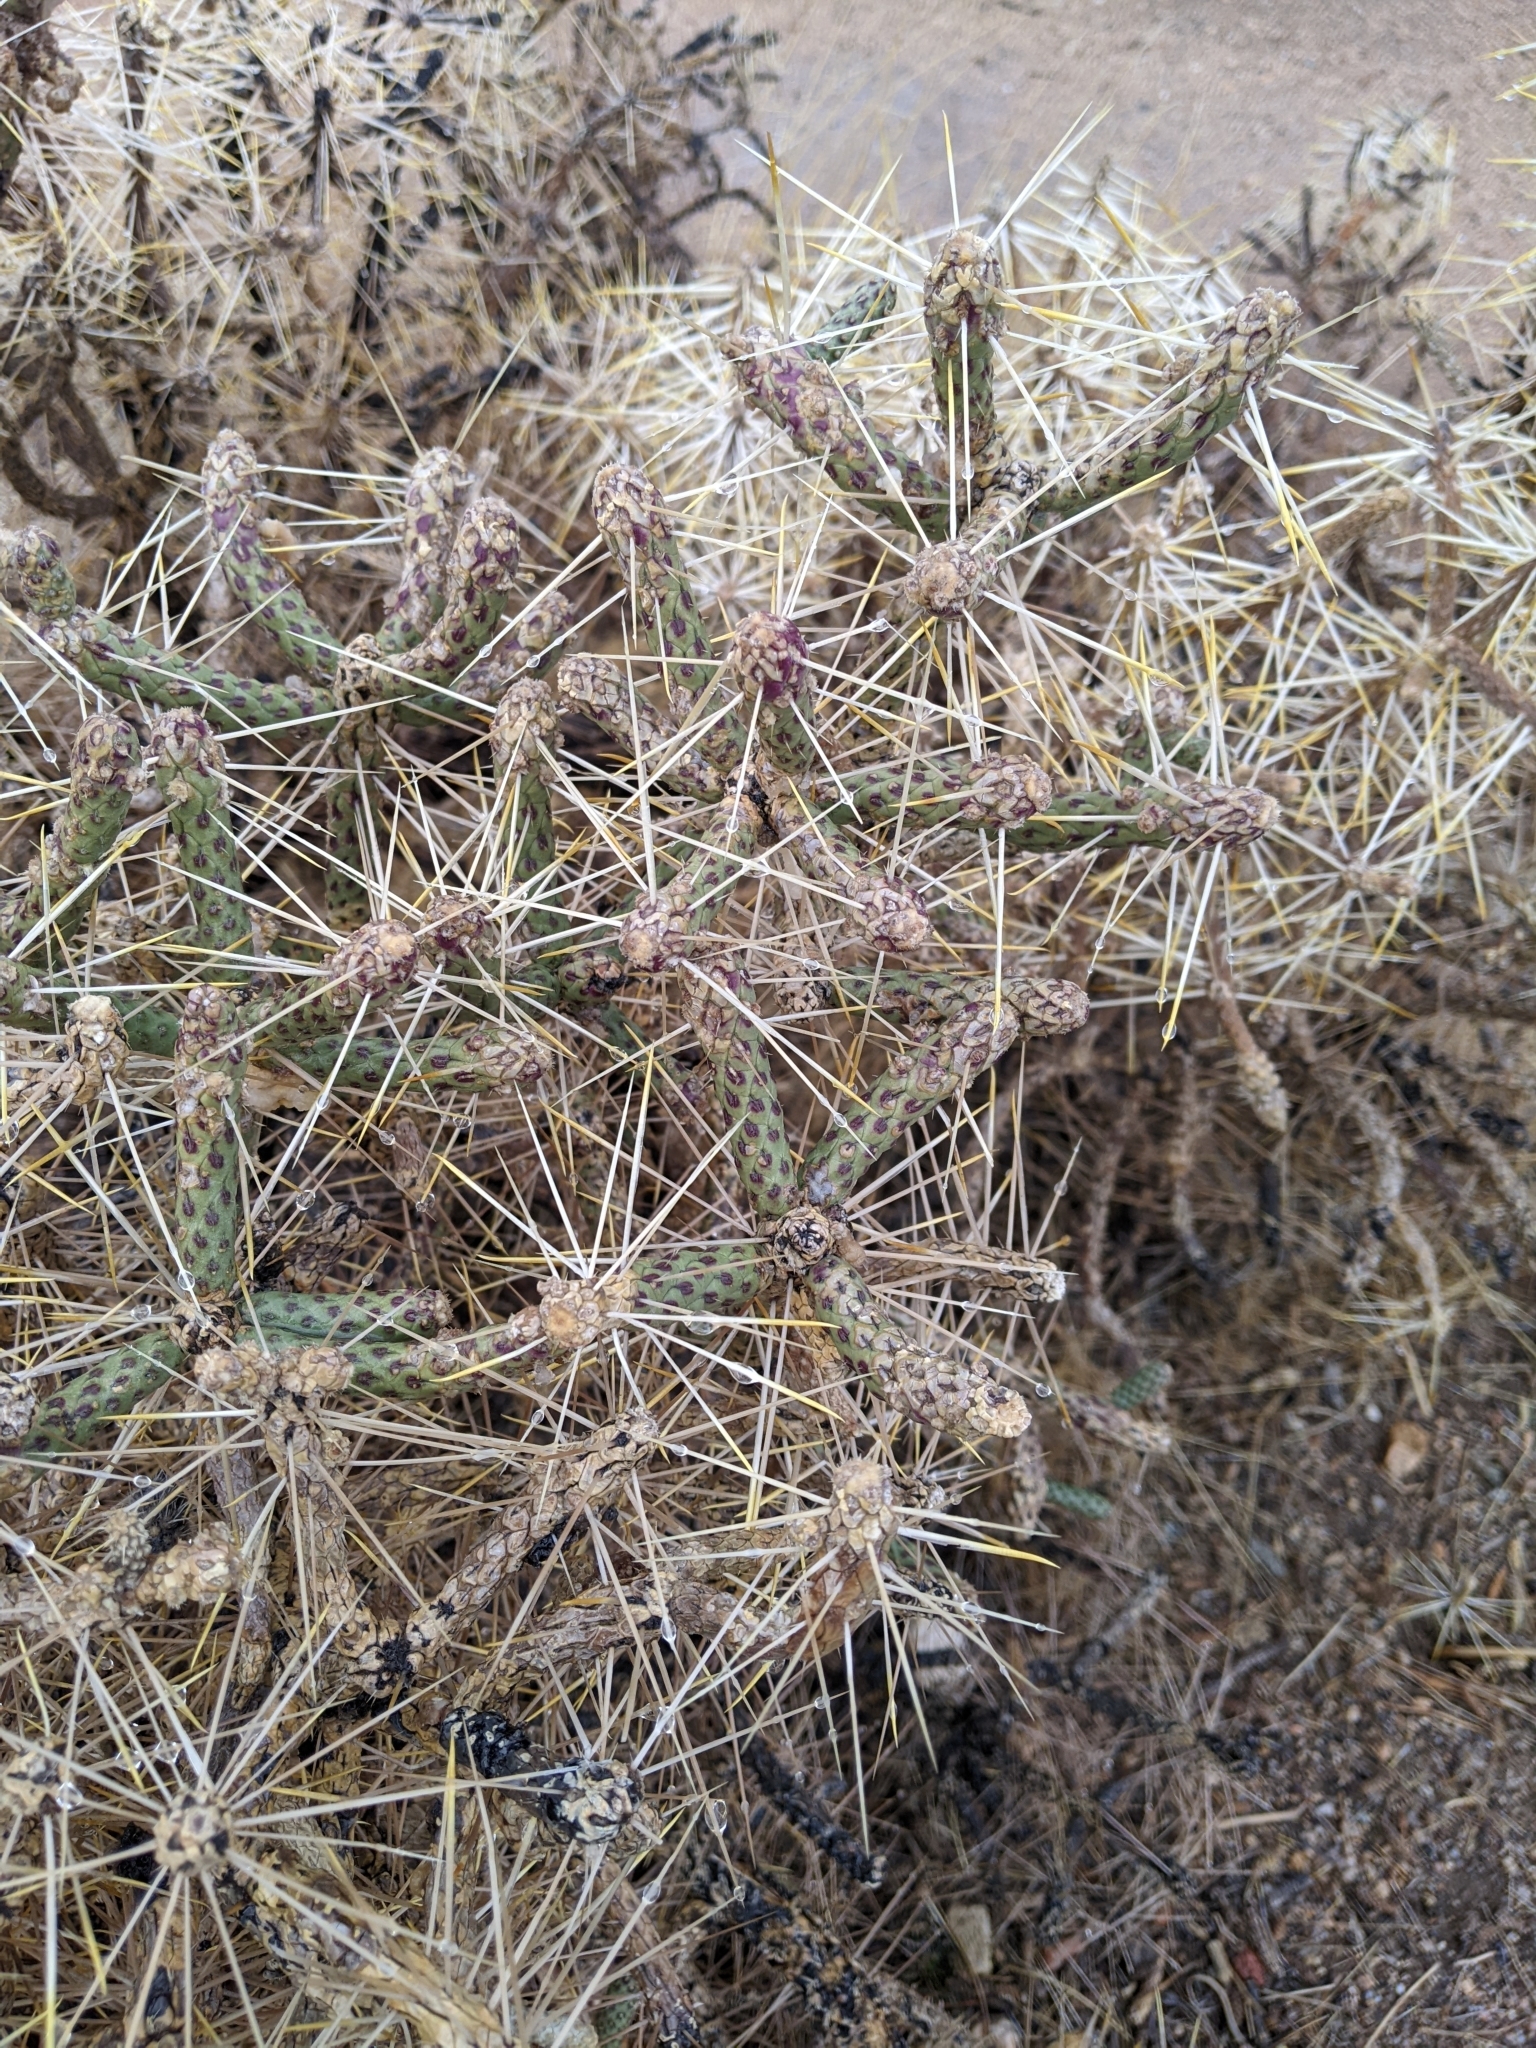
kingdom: Plantae
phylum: Tracheophyta
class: Magnoliopsida
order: Caryophyllales
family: Cactaceae
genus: Cylindropuntia
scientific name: Cylindropuntia ramosissima
